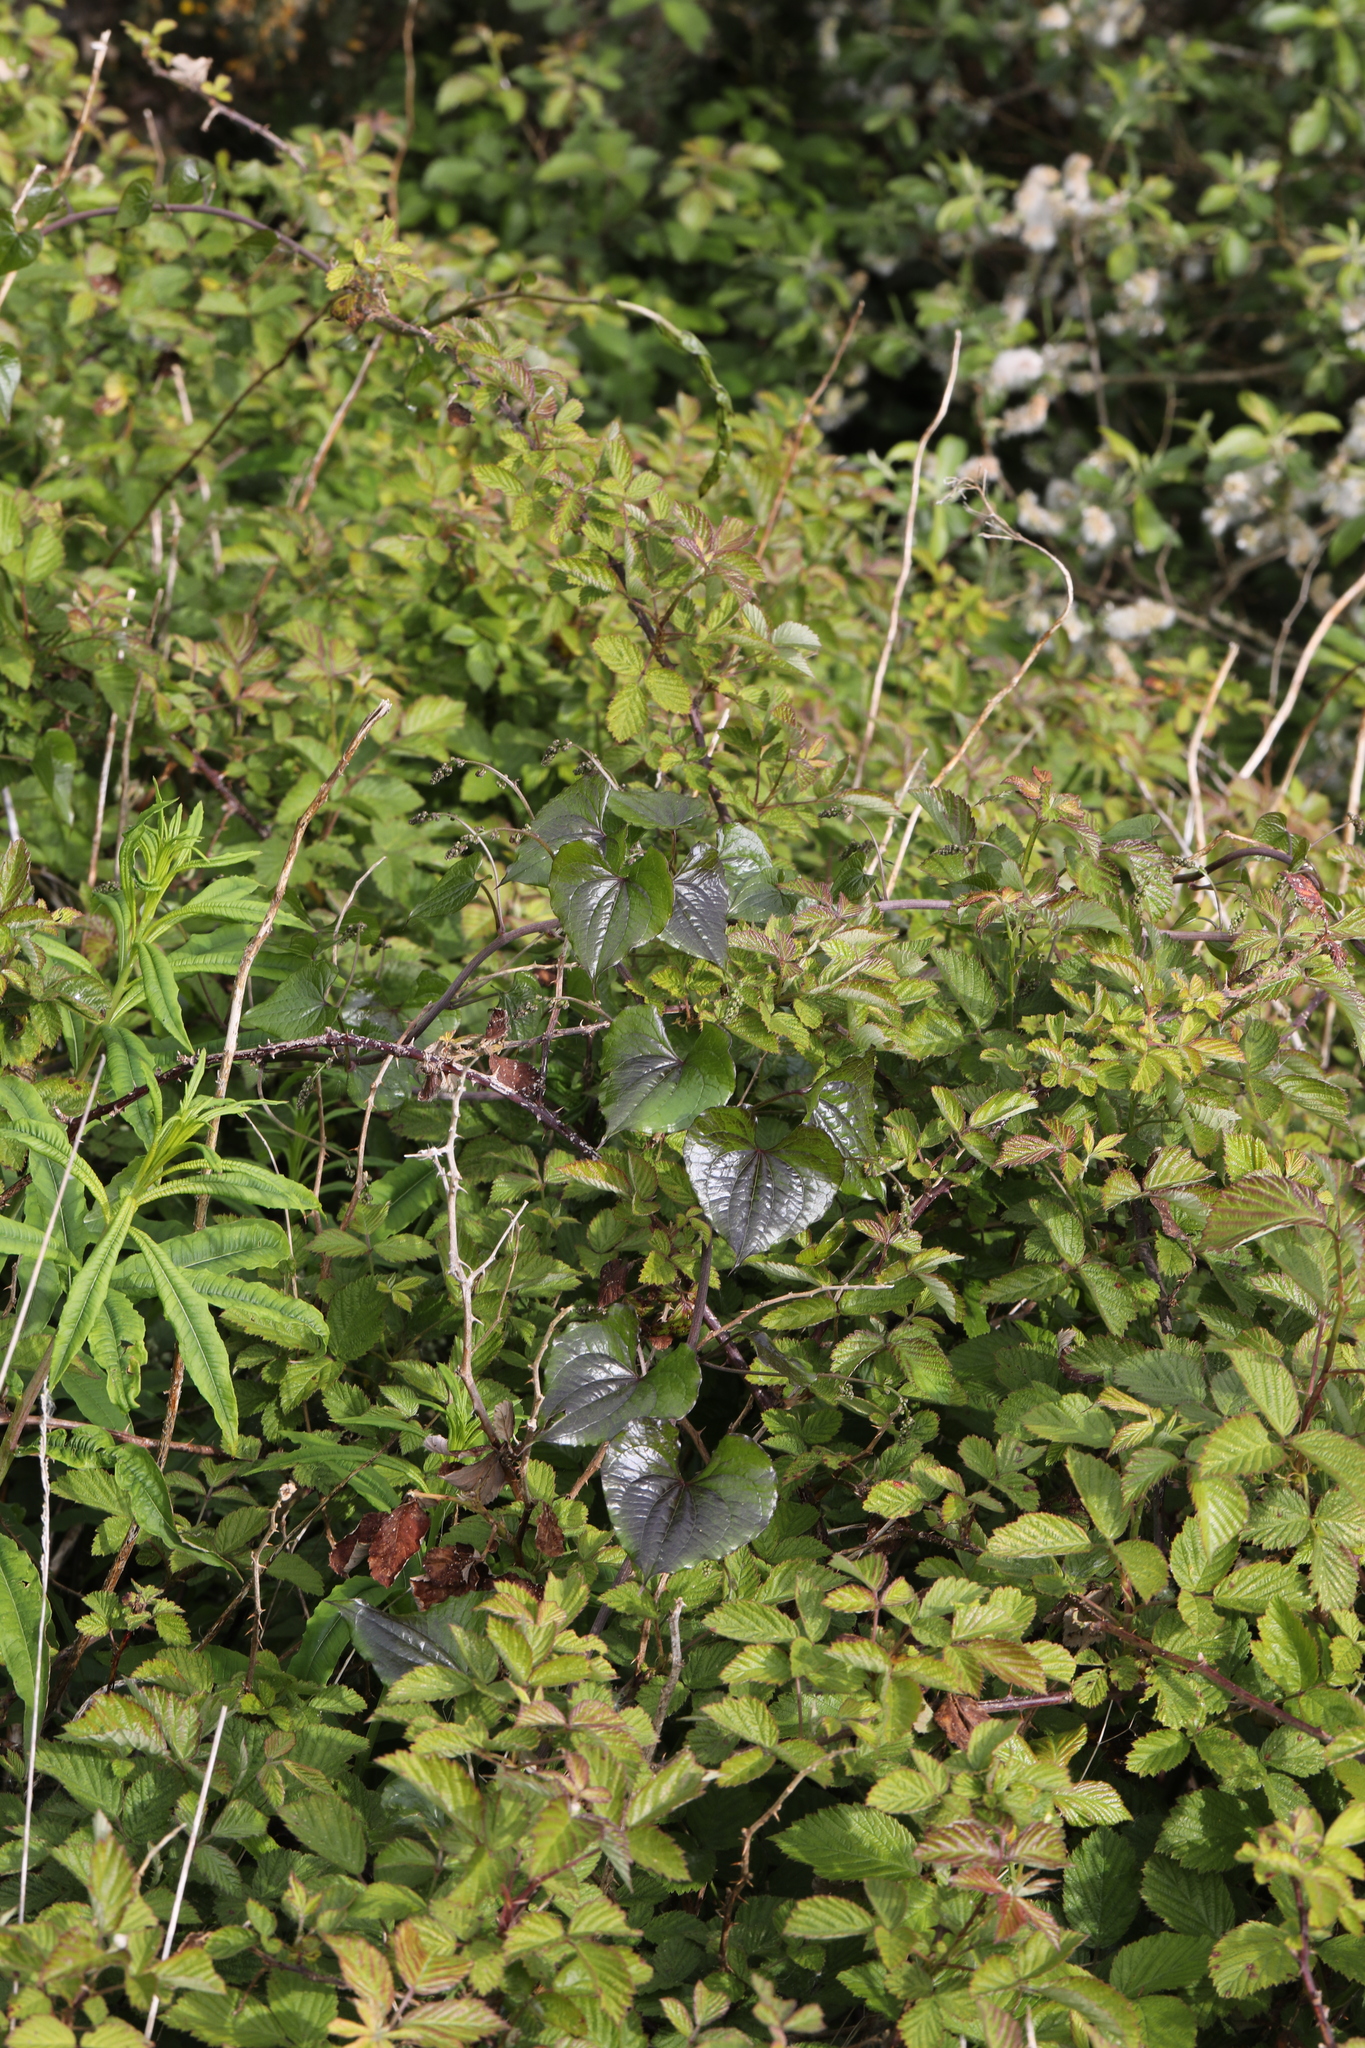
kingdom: Plantae
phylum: Tracheophyta
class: Liliopsida
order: Dioscoreales
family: Dioscoreaceae
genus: Dioscorea
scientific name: Dioscorea communis
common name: Black-bindweed
